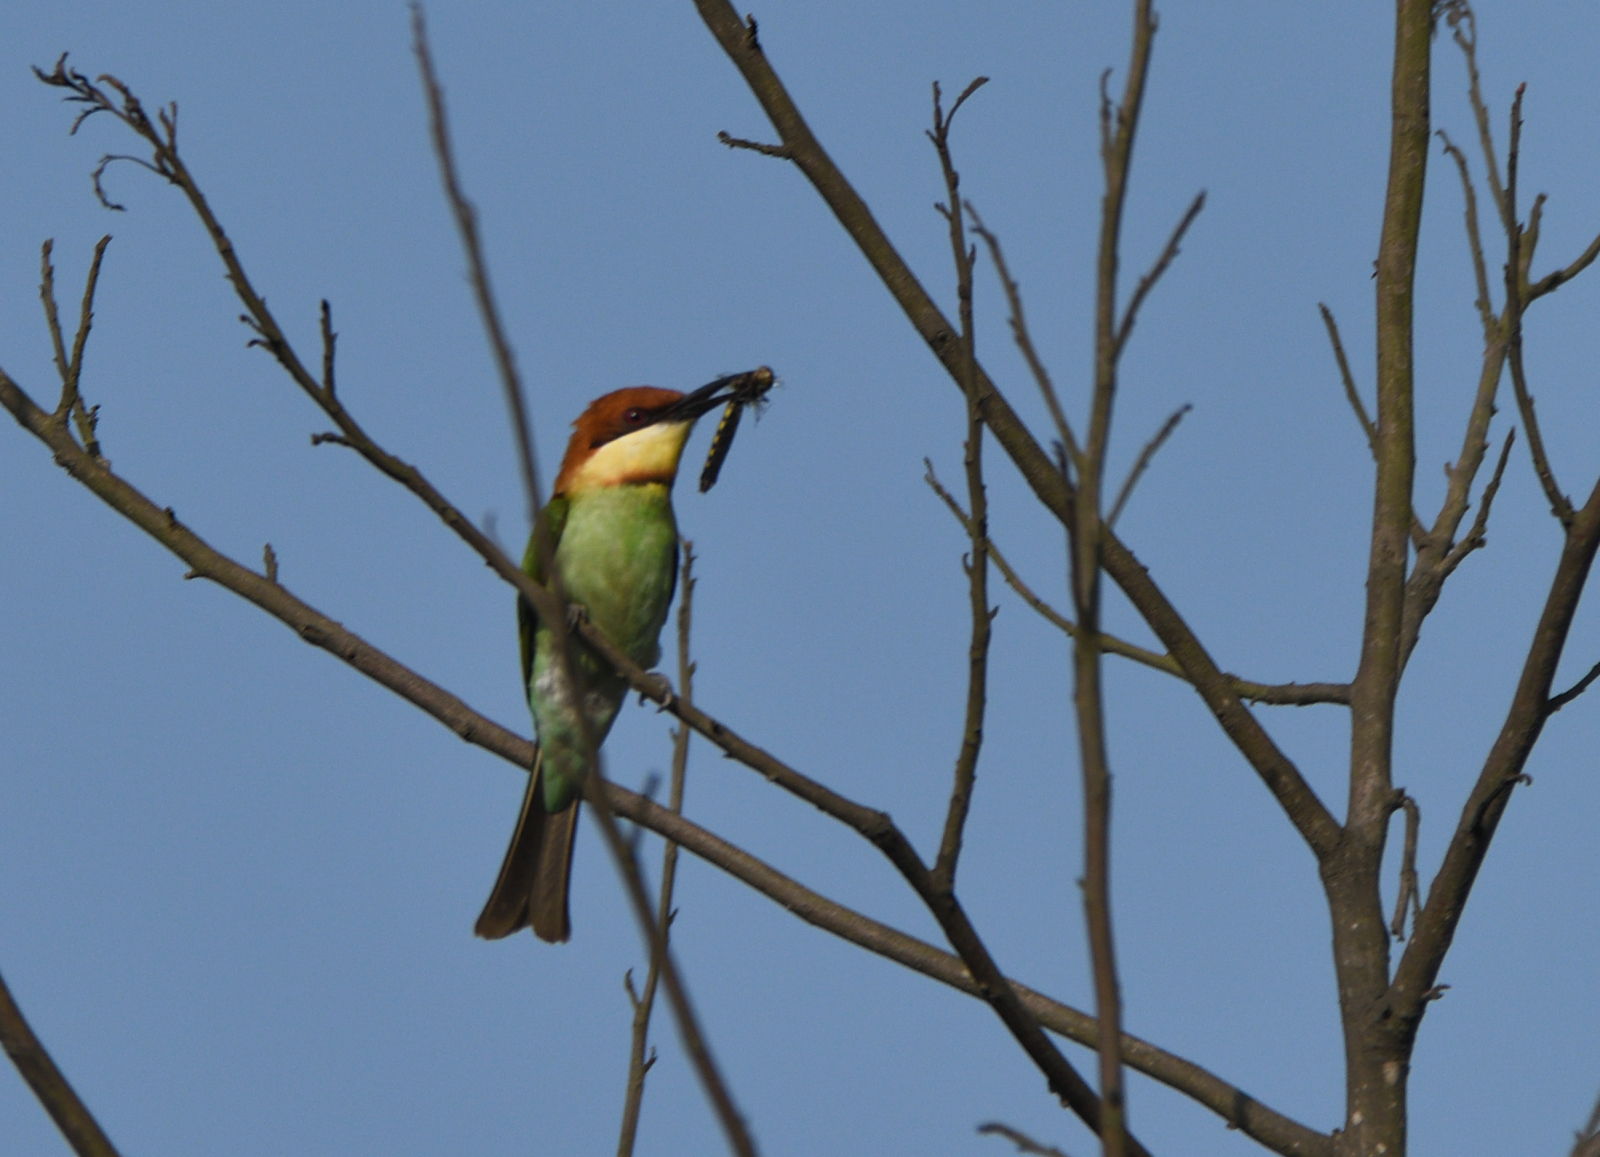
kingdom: Animalia
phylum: Chordata
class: Aves
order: Coraciiformes
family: Meropidae
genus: Merops
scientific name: Merops leschenaulti
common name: Chestnut-headed bee-eater
